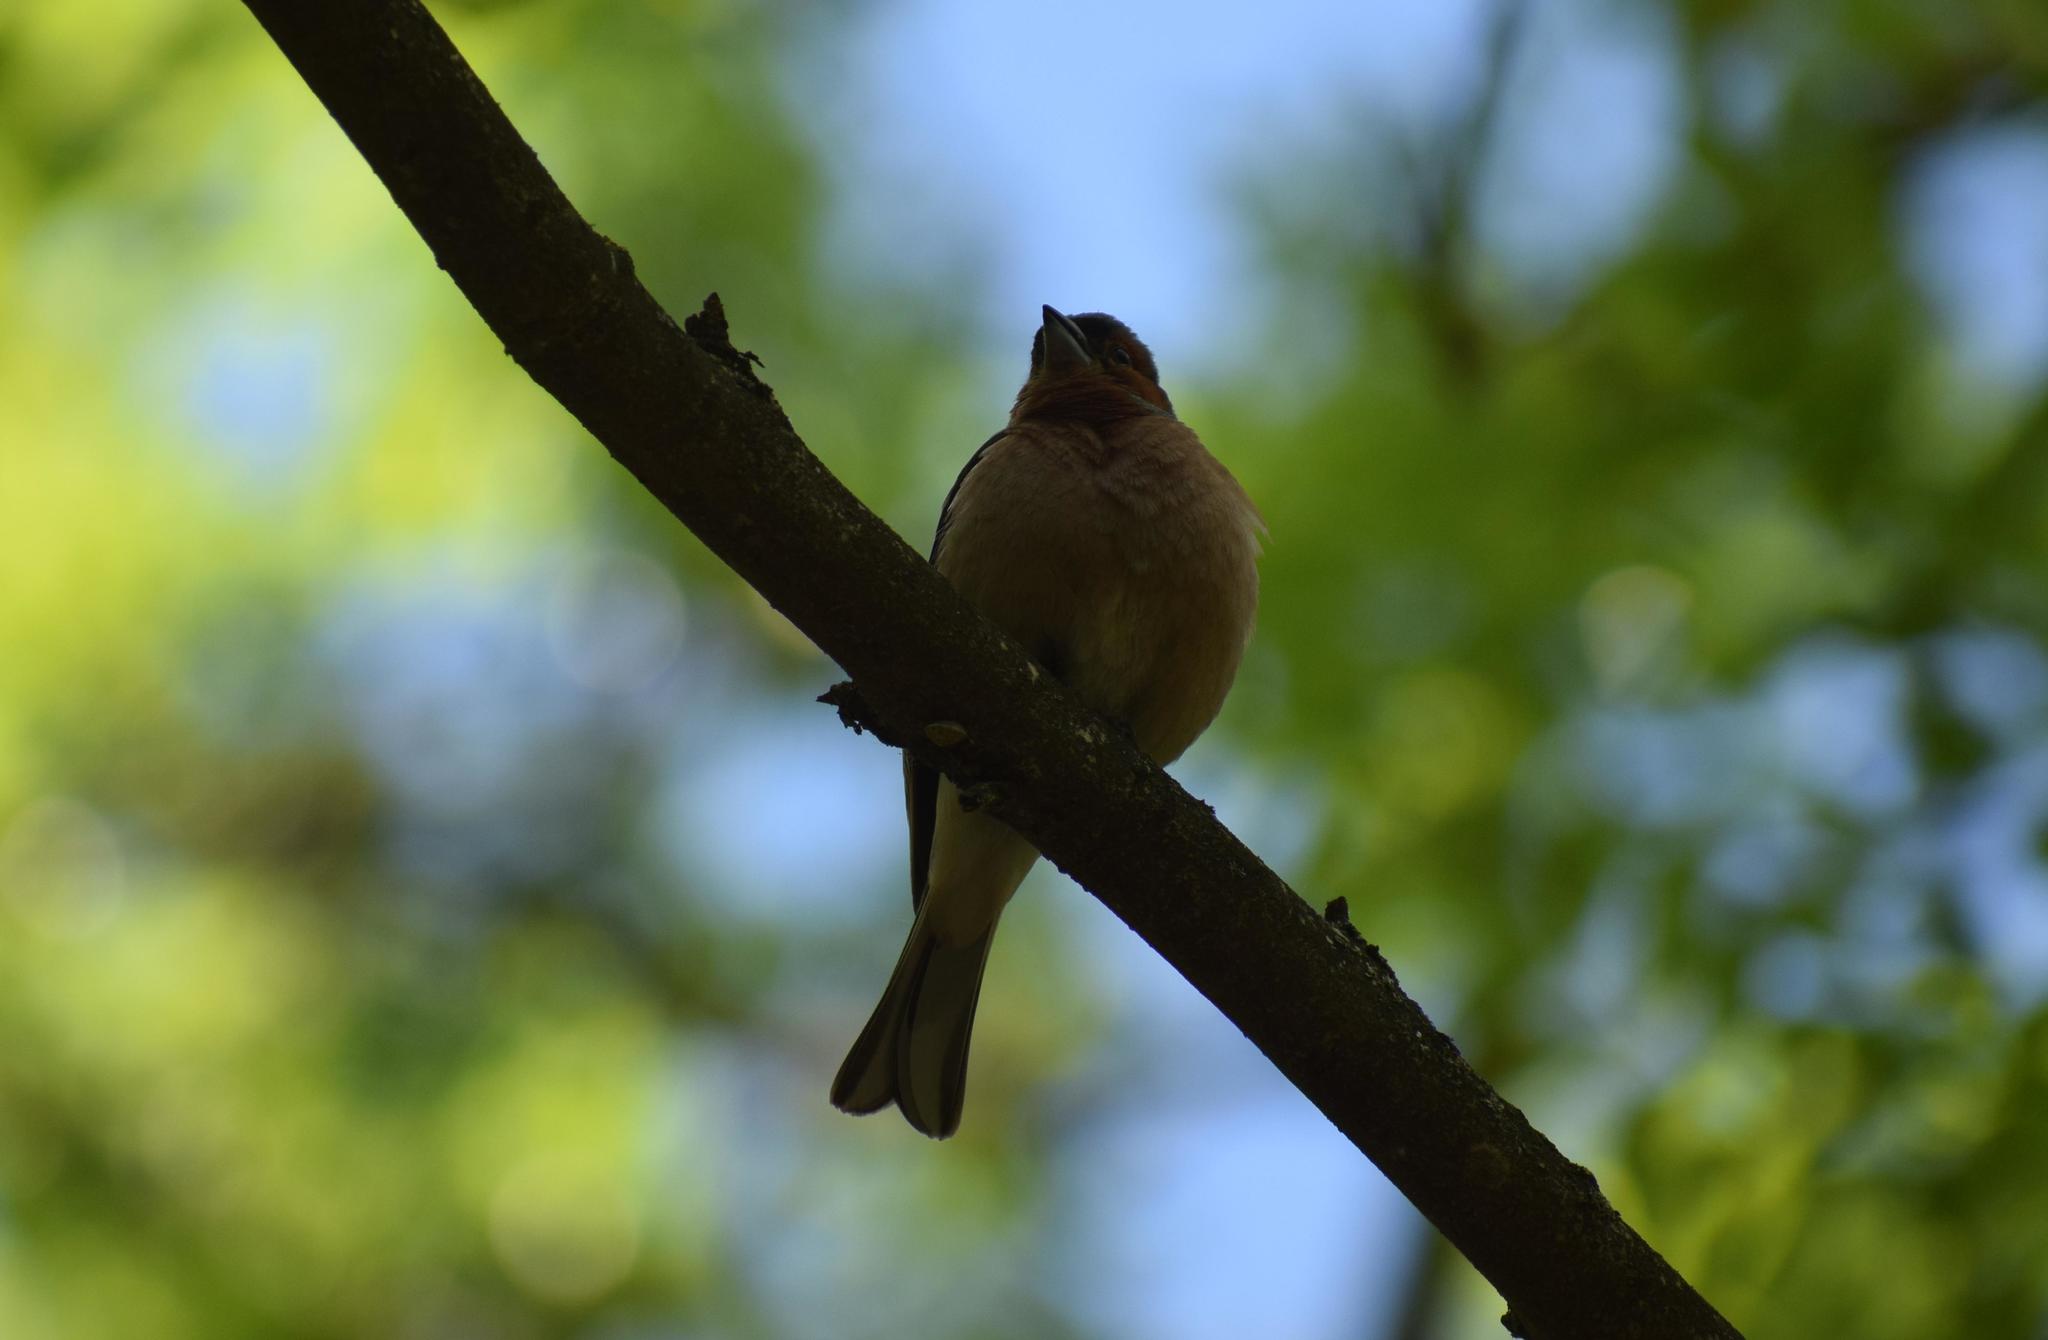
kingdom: Animalia
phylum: Chordata
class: Aves
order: Passeriformes
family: Fringillidae
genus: Fringilla
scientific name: Fringilla coelebs
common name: Common chaffinch
